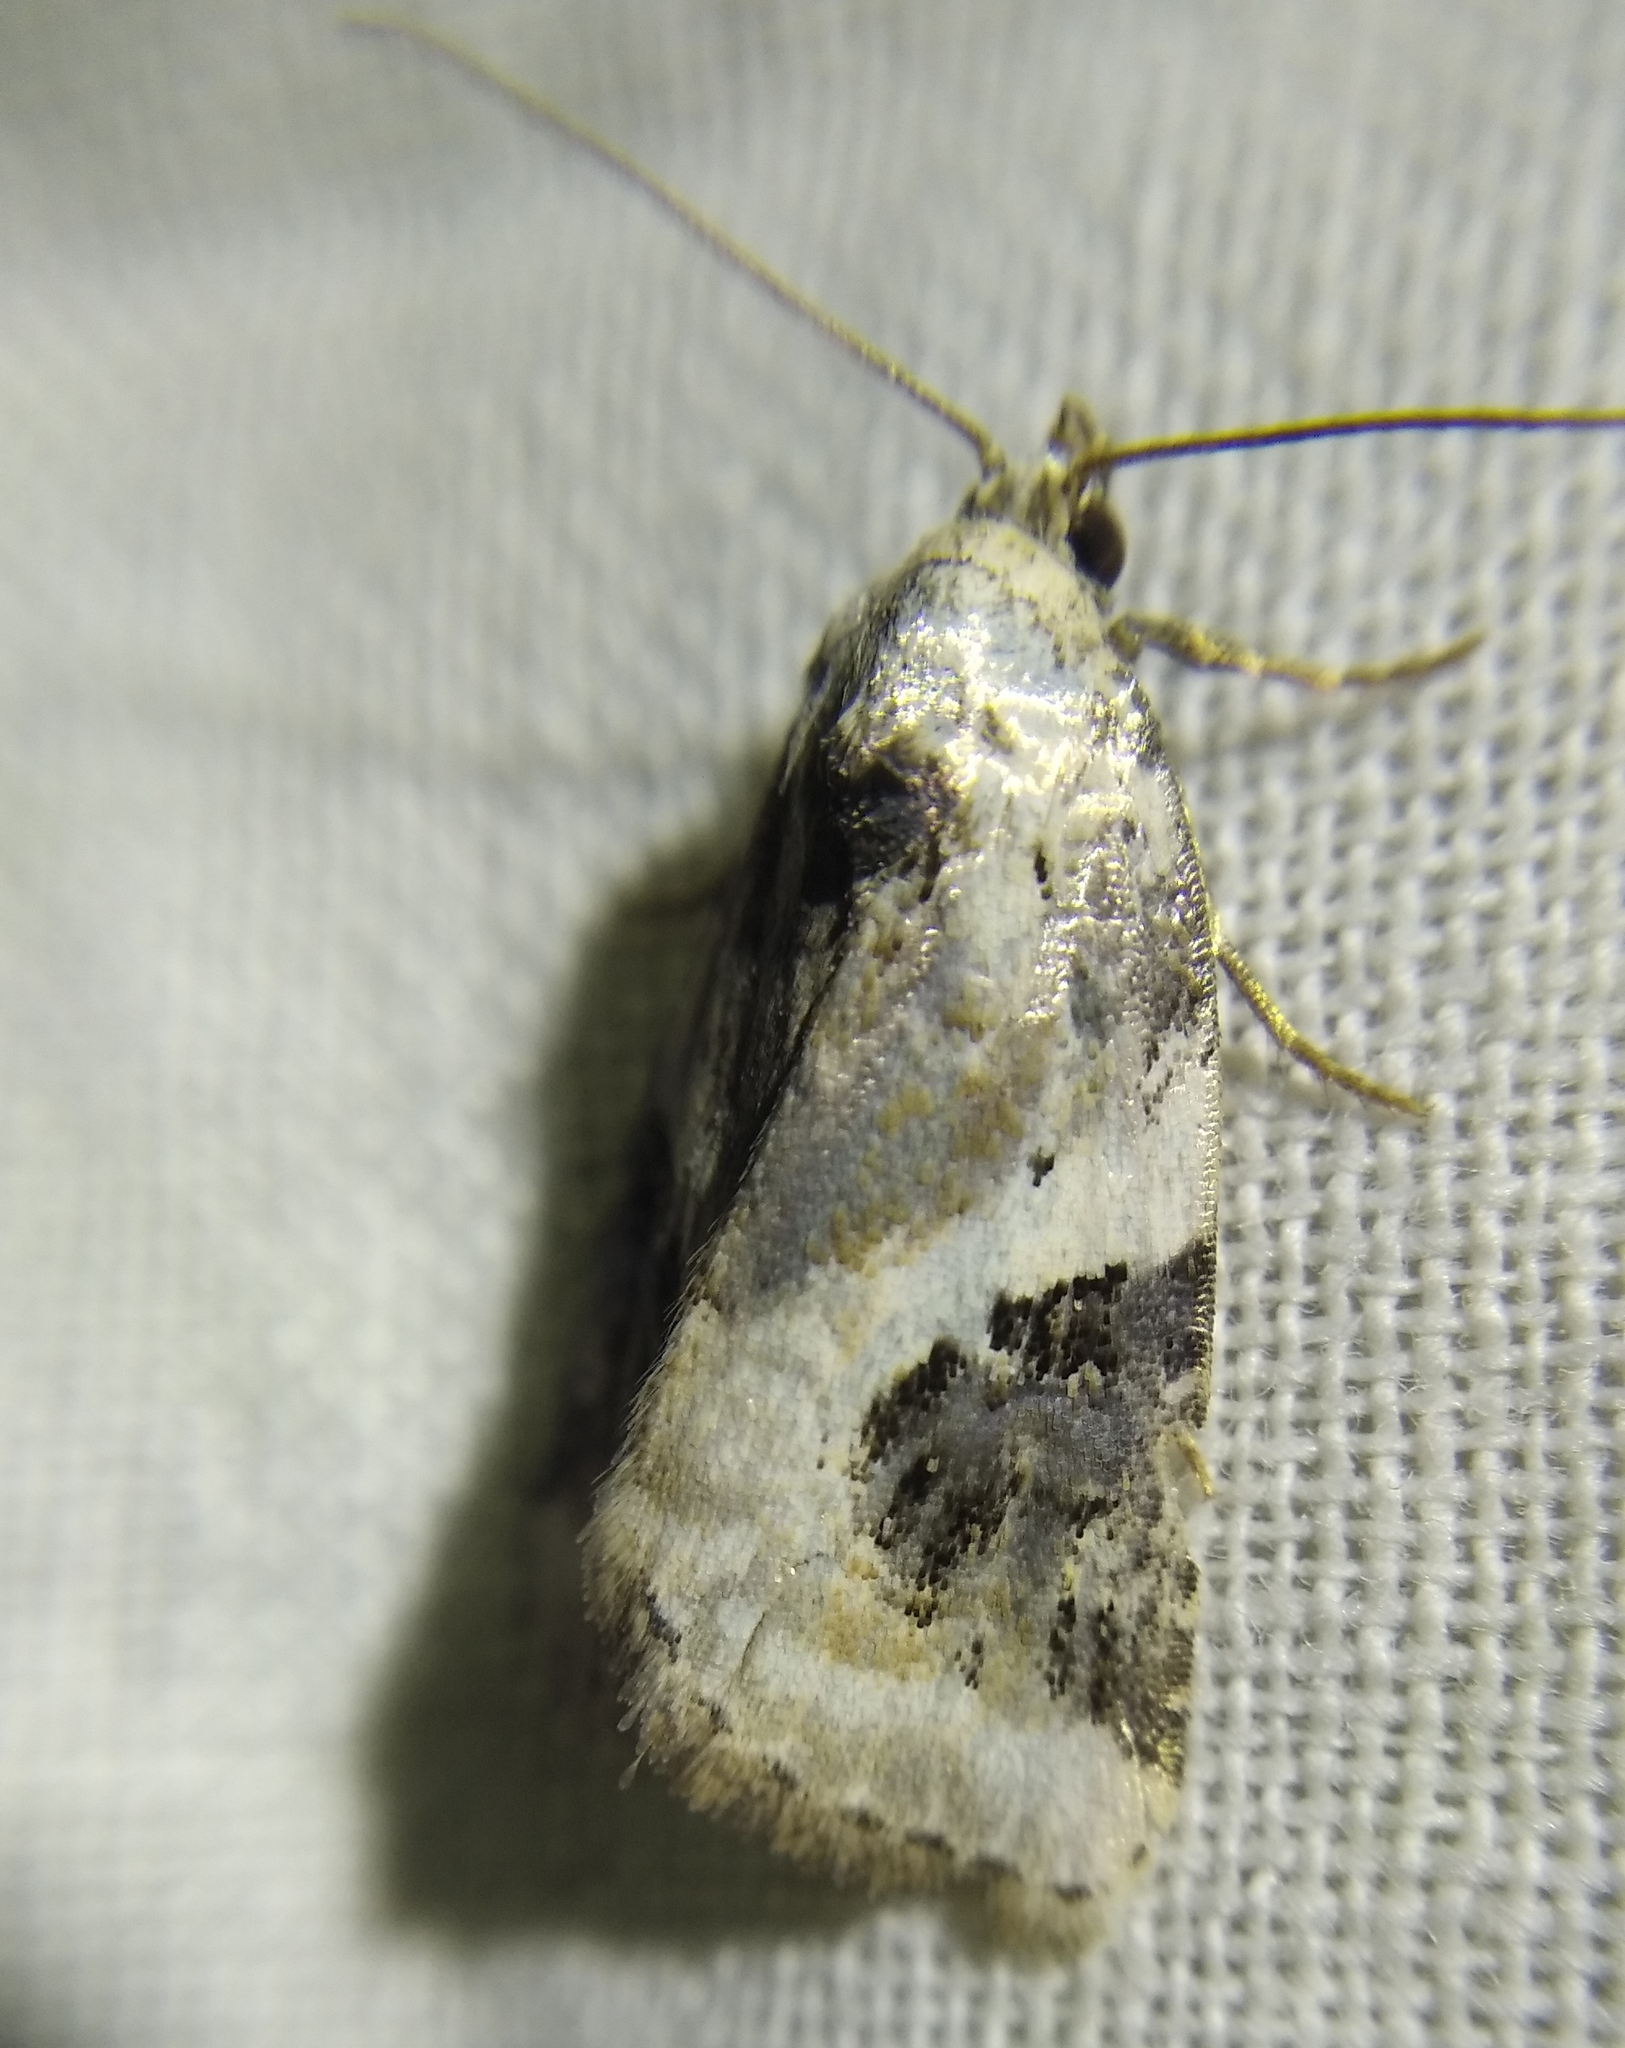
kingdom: Animalia
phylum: Arthropoda
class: Insecta
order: Lepidoptera
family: Noctuidae
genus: Pseudeustrotia
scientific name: Pseudeustrotia candidula
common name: Shining marbled
